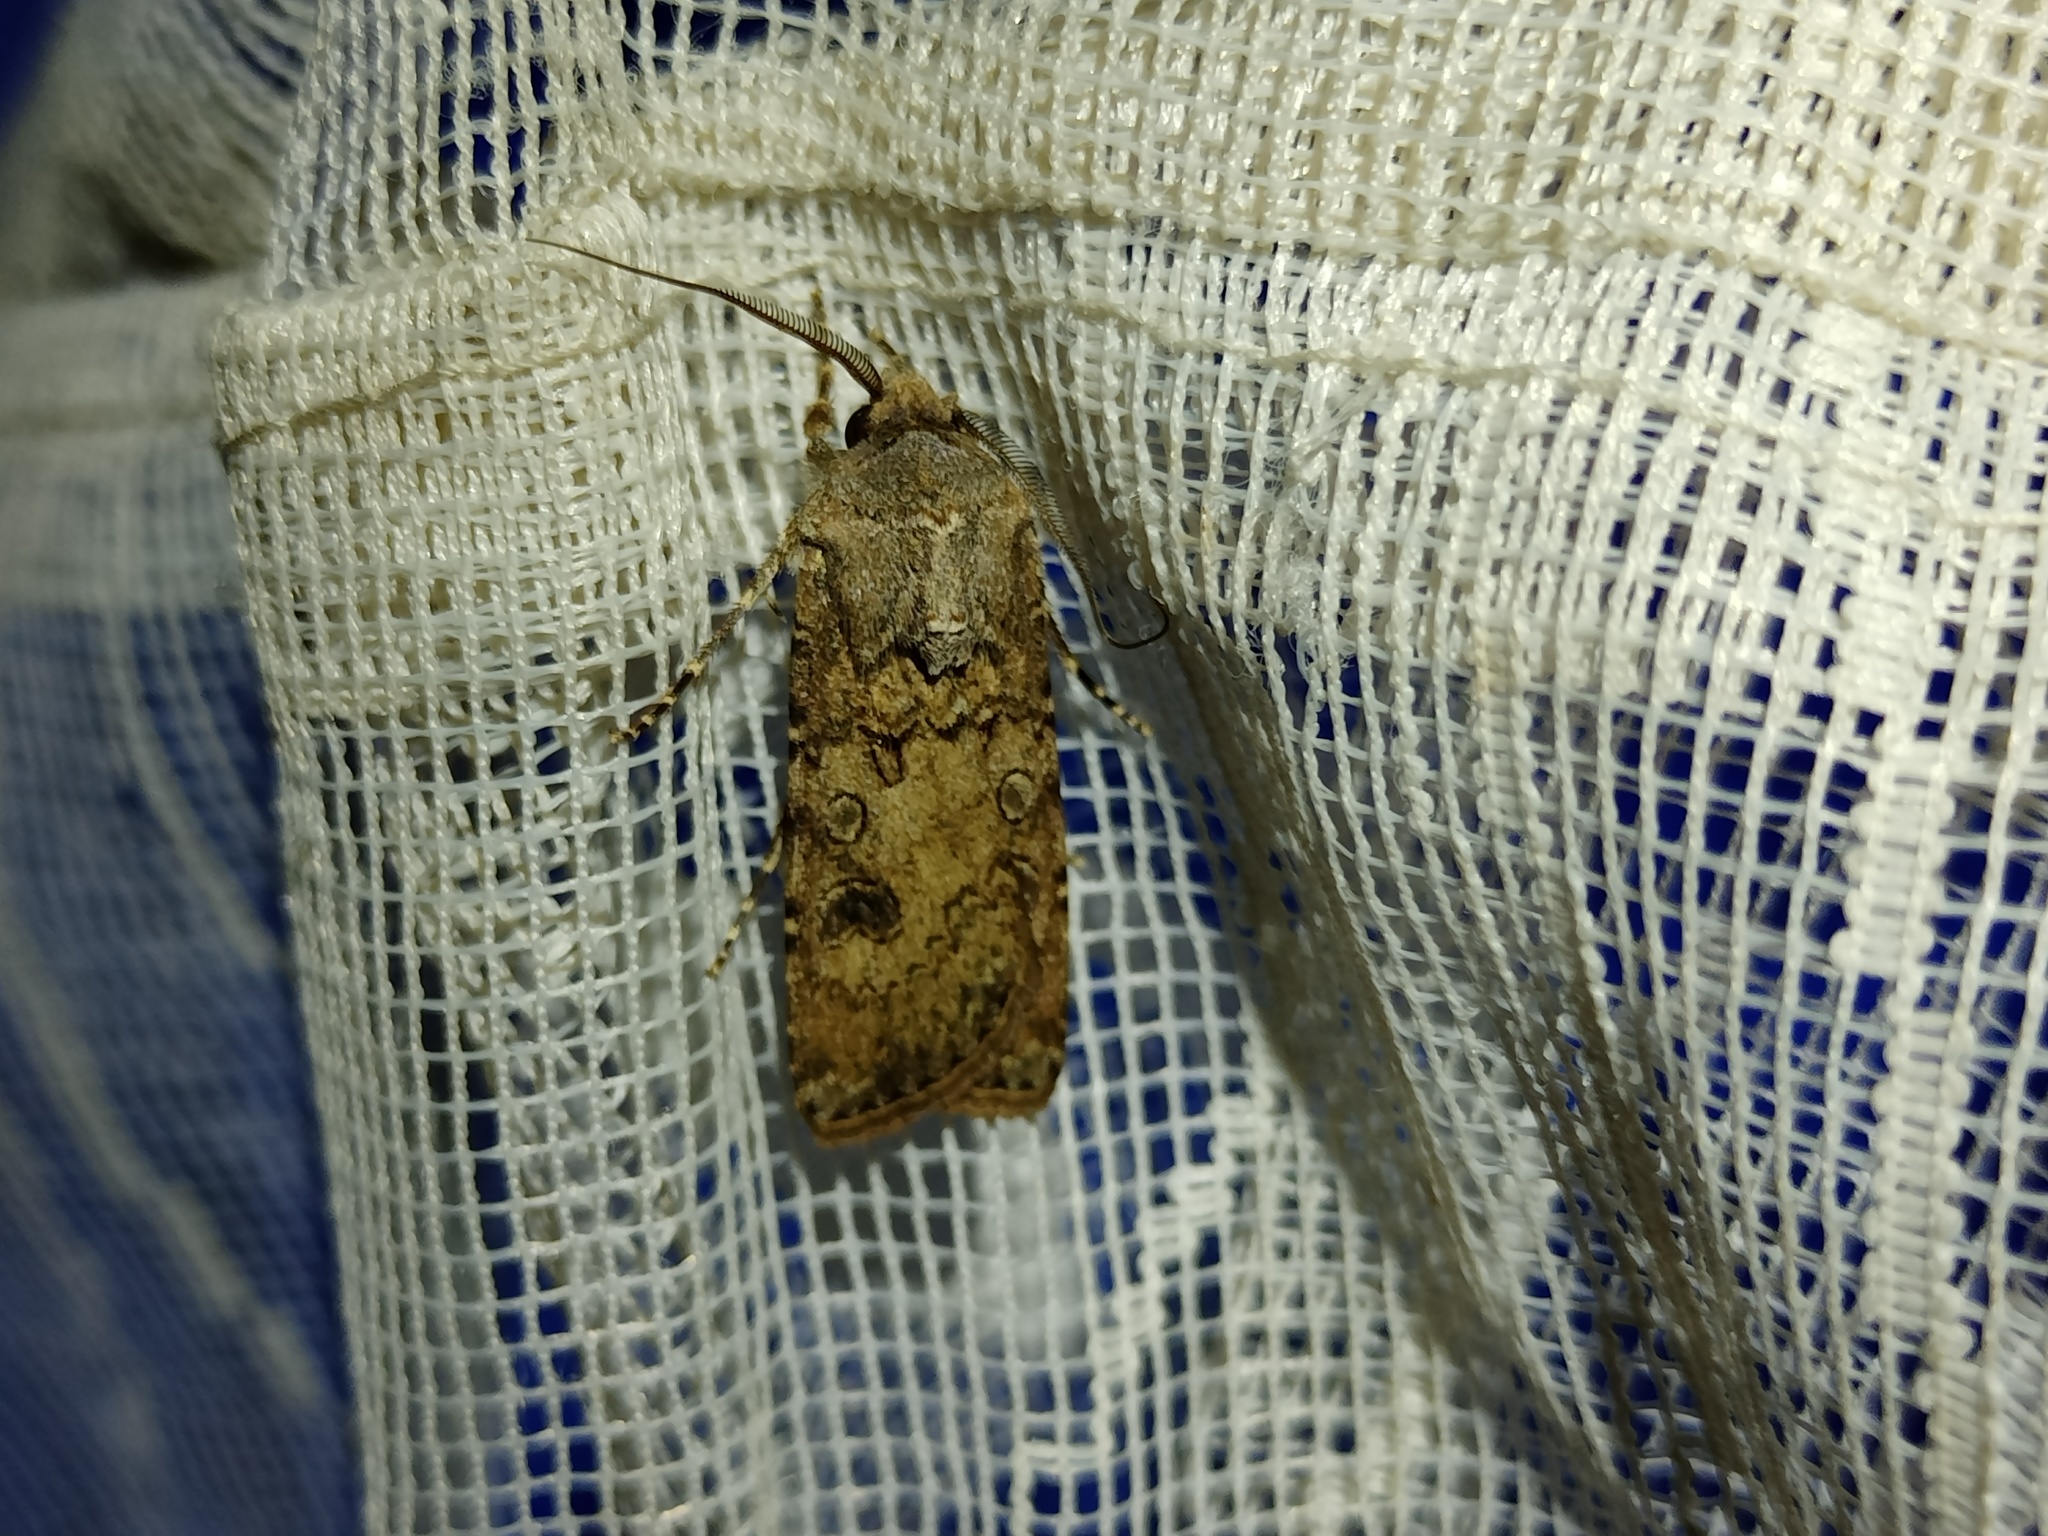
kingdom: Animalia
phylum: Arthropoda
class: Insecta
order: Lepidoptera
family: Noctuidae
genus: Agrotis
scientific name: Agrotis segetum
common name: Turnip moth
